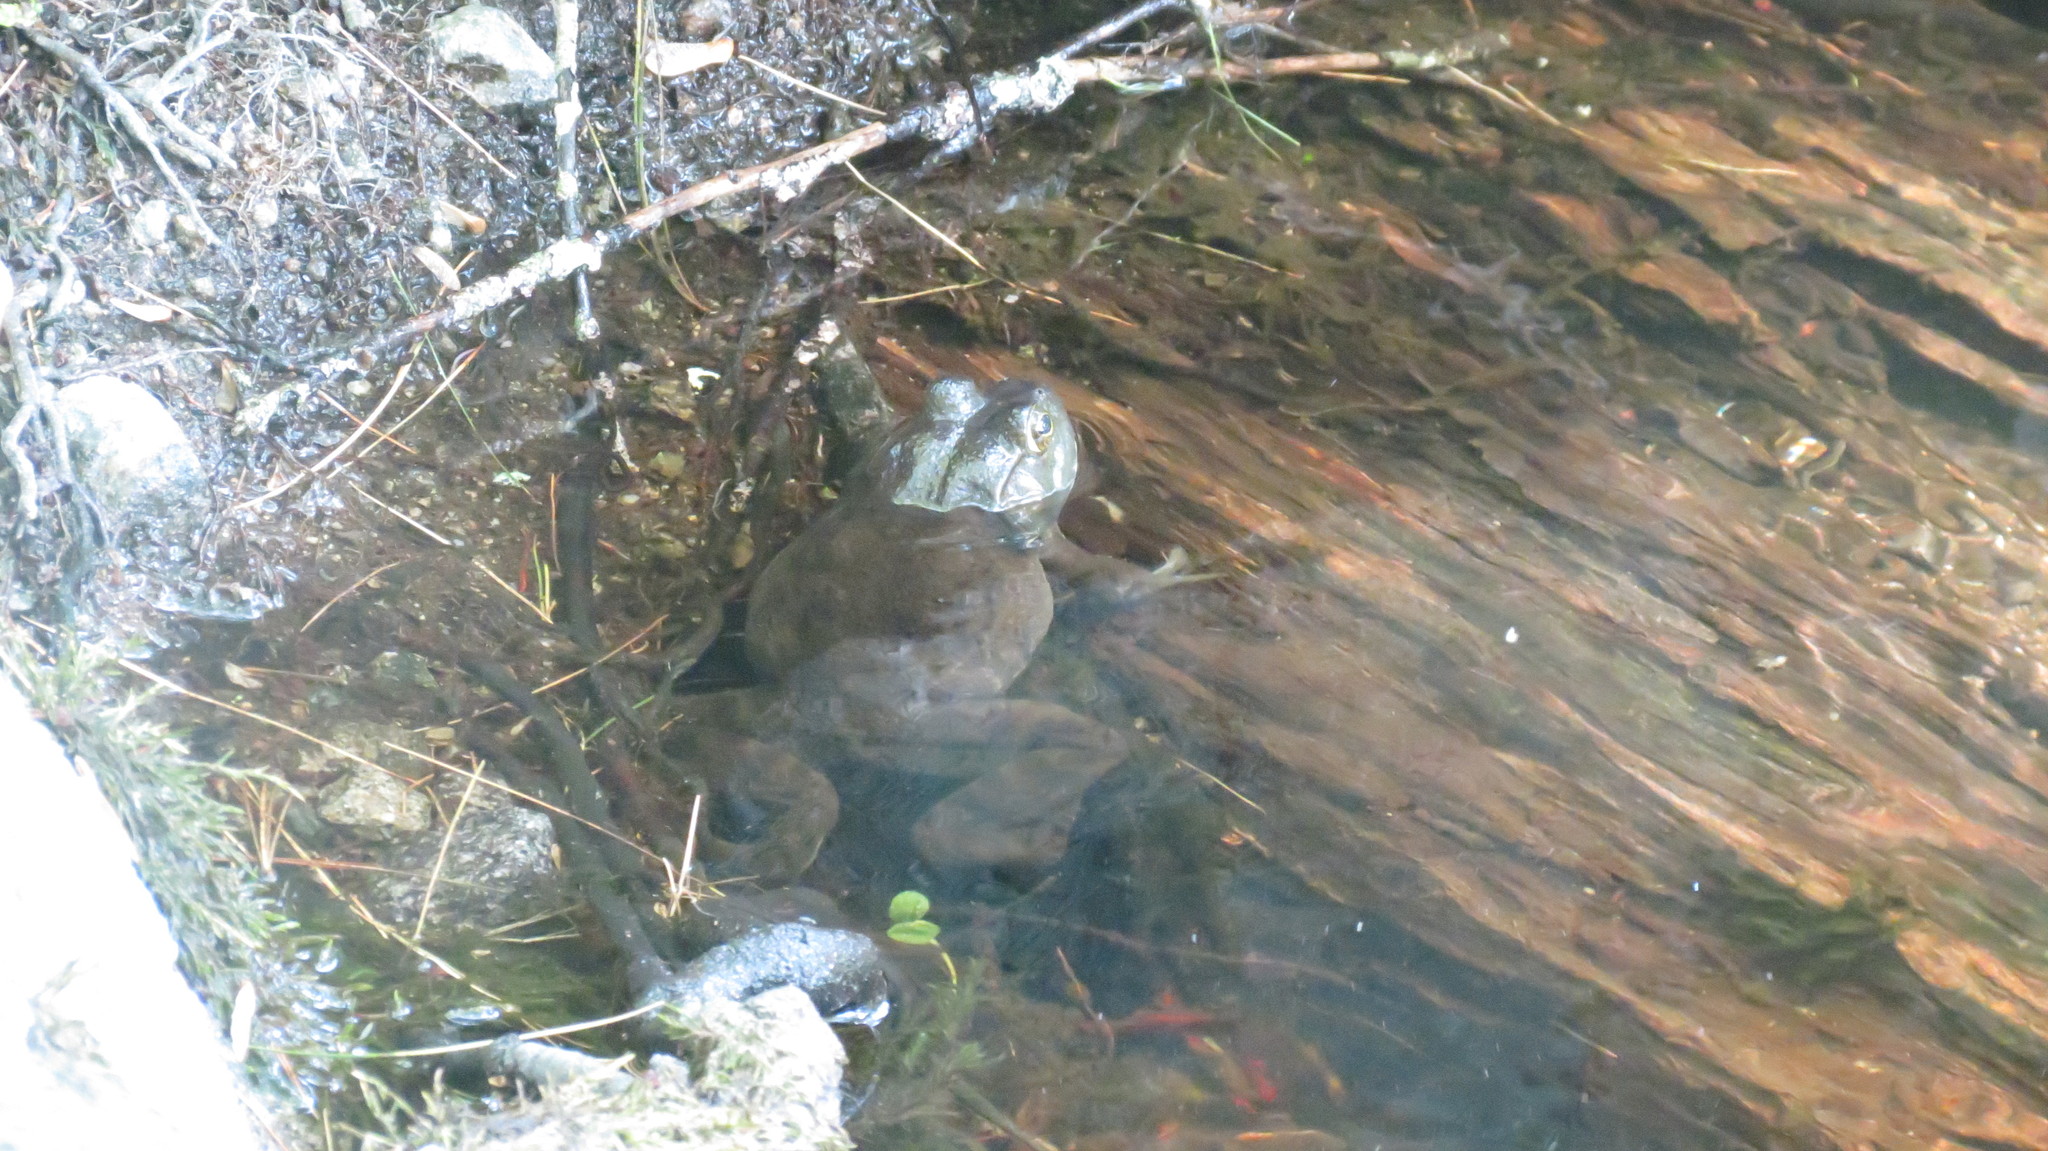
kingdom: Animalia
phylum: Chordata
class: Amphibia
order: Anura
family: Ranidae
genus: Lithobates
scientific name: Lithobates catesbeianus
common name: American bullfrog
